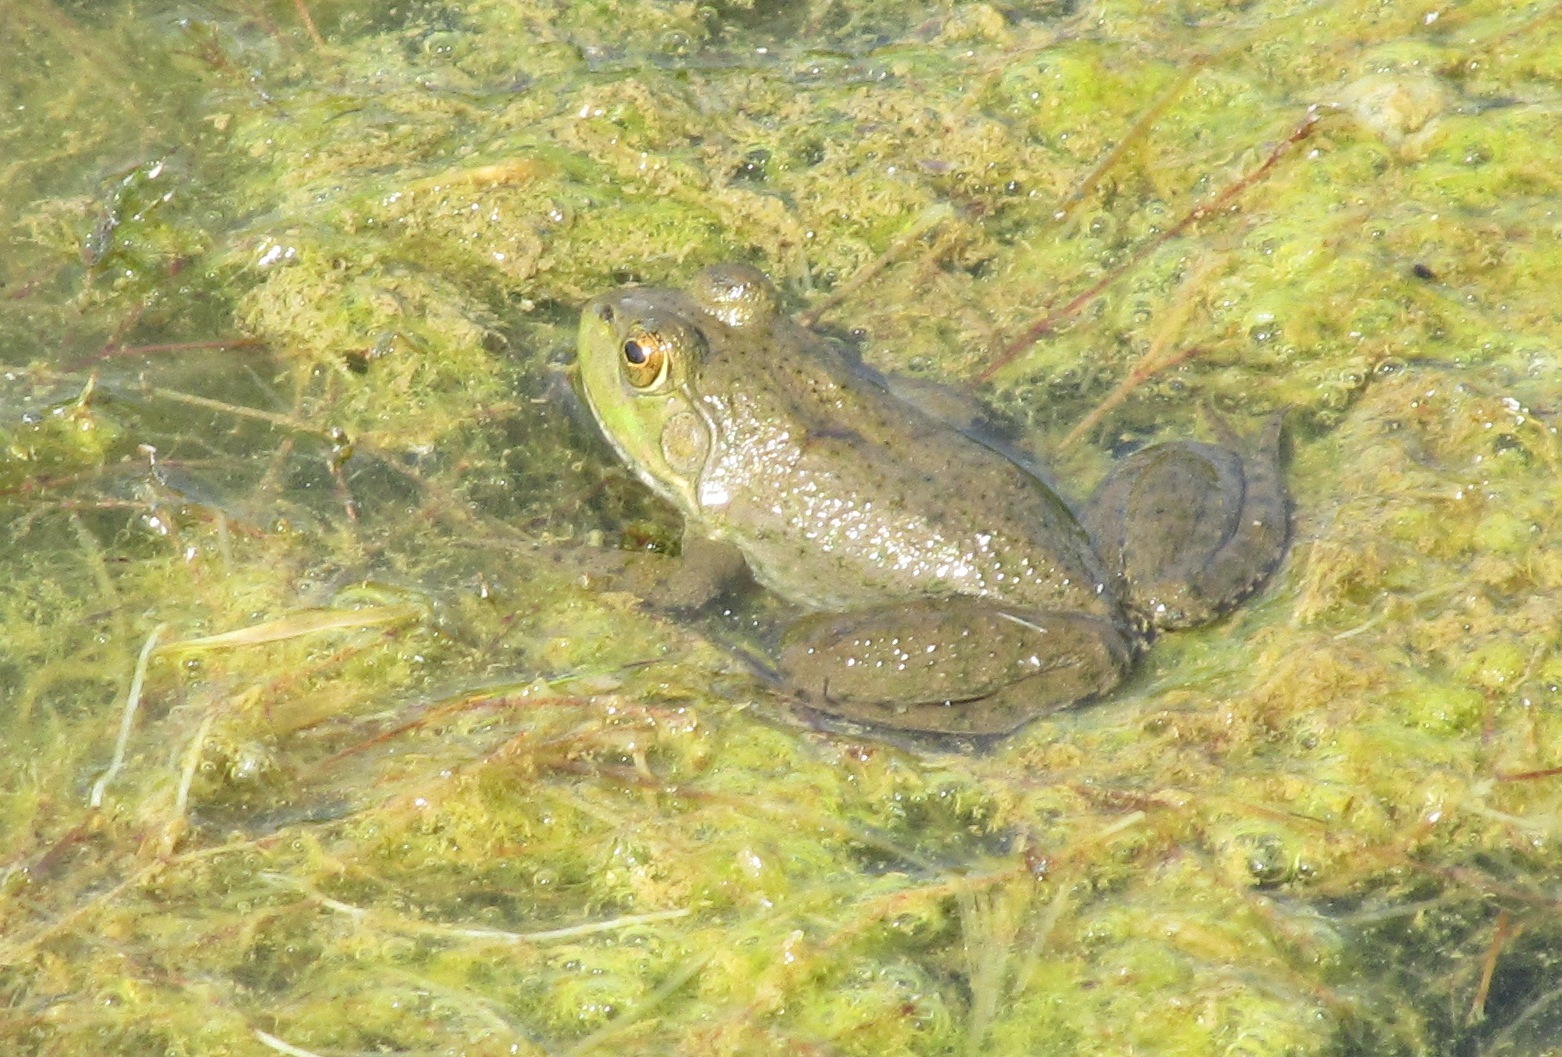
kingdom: Animalia
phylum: Chordata
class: Amphibia
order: Anura
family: Ranidae
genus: Lithobates
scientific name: Lithobates catesbeianus
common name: American bullfrog
